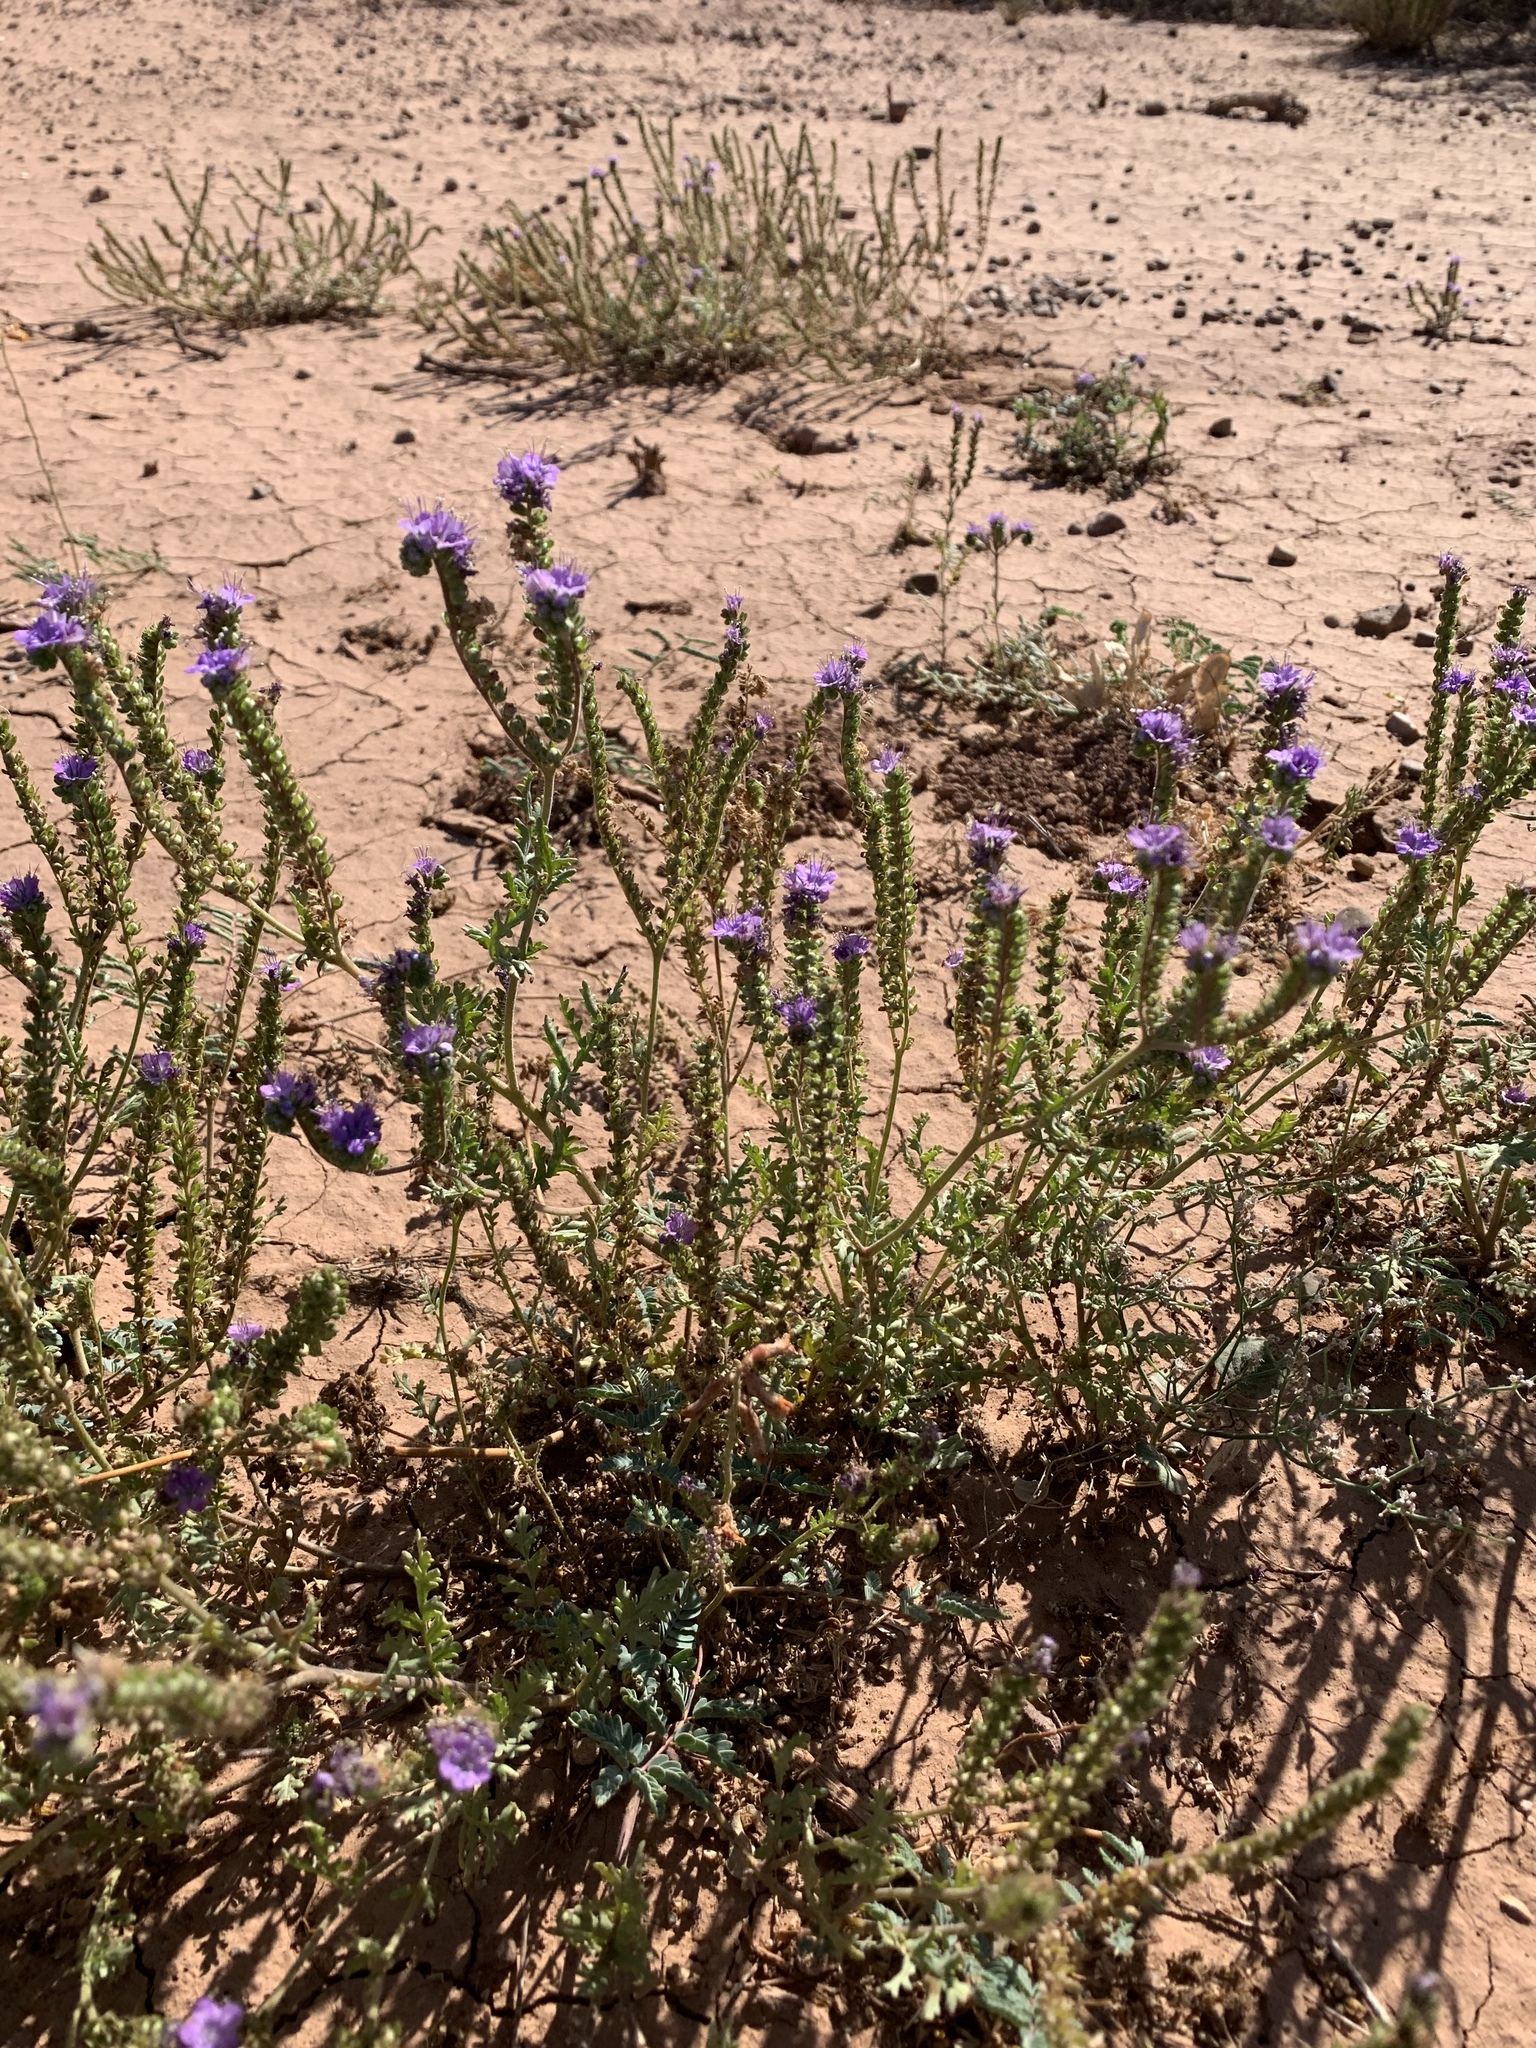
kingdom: Plantae
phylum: Tracheophyta
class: Magnoliopsida
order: Boraginales
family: Hydrophyllaceae
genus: Phacelia
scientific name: Phacelia popei
